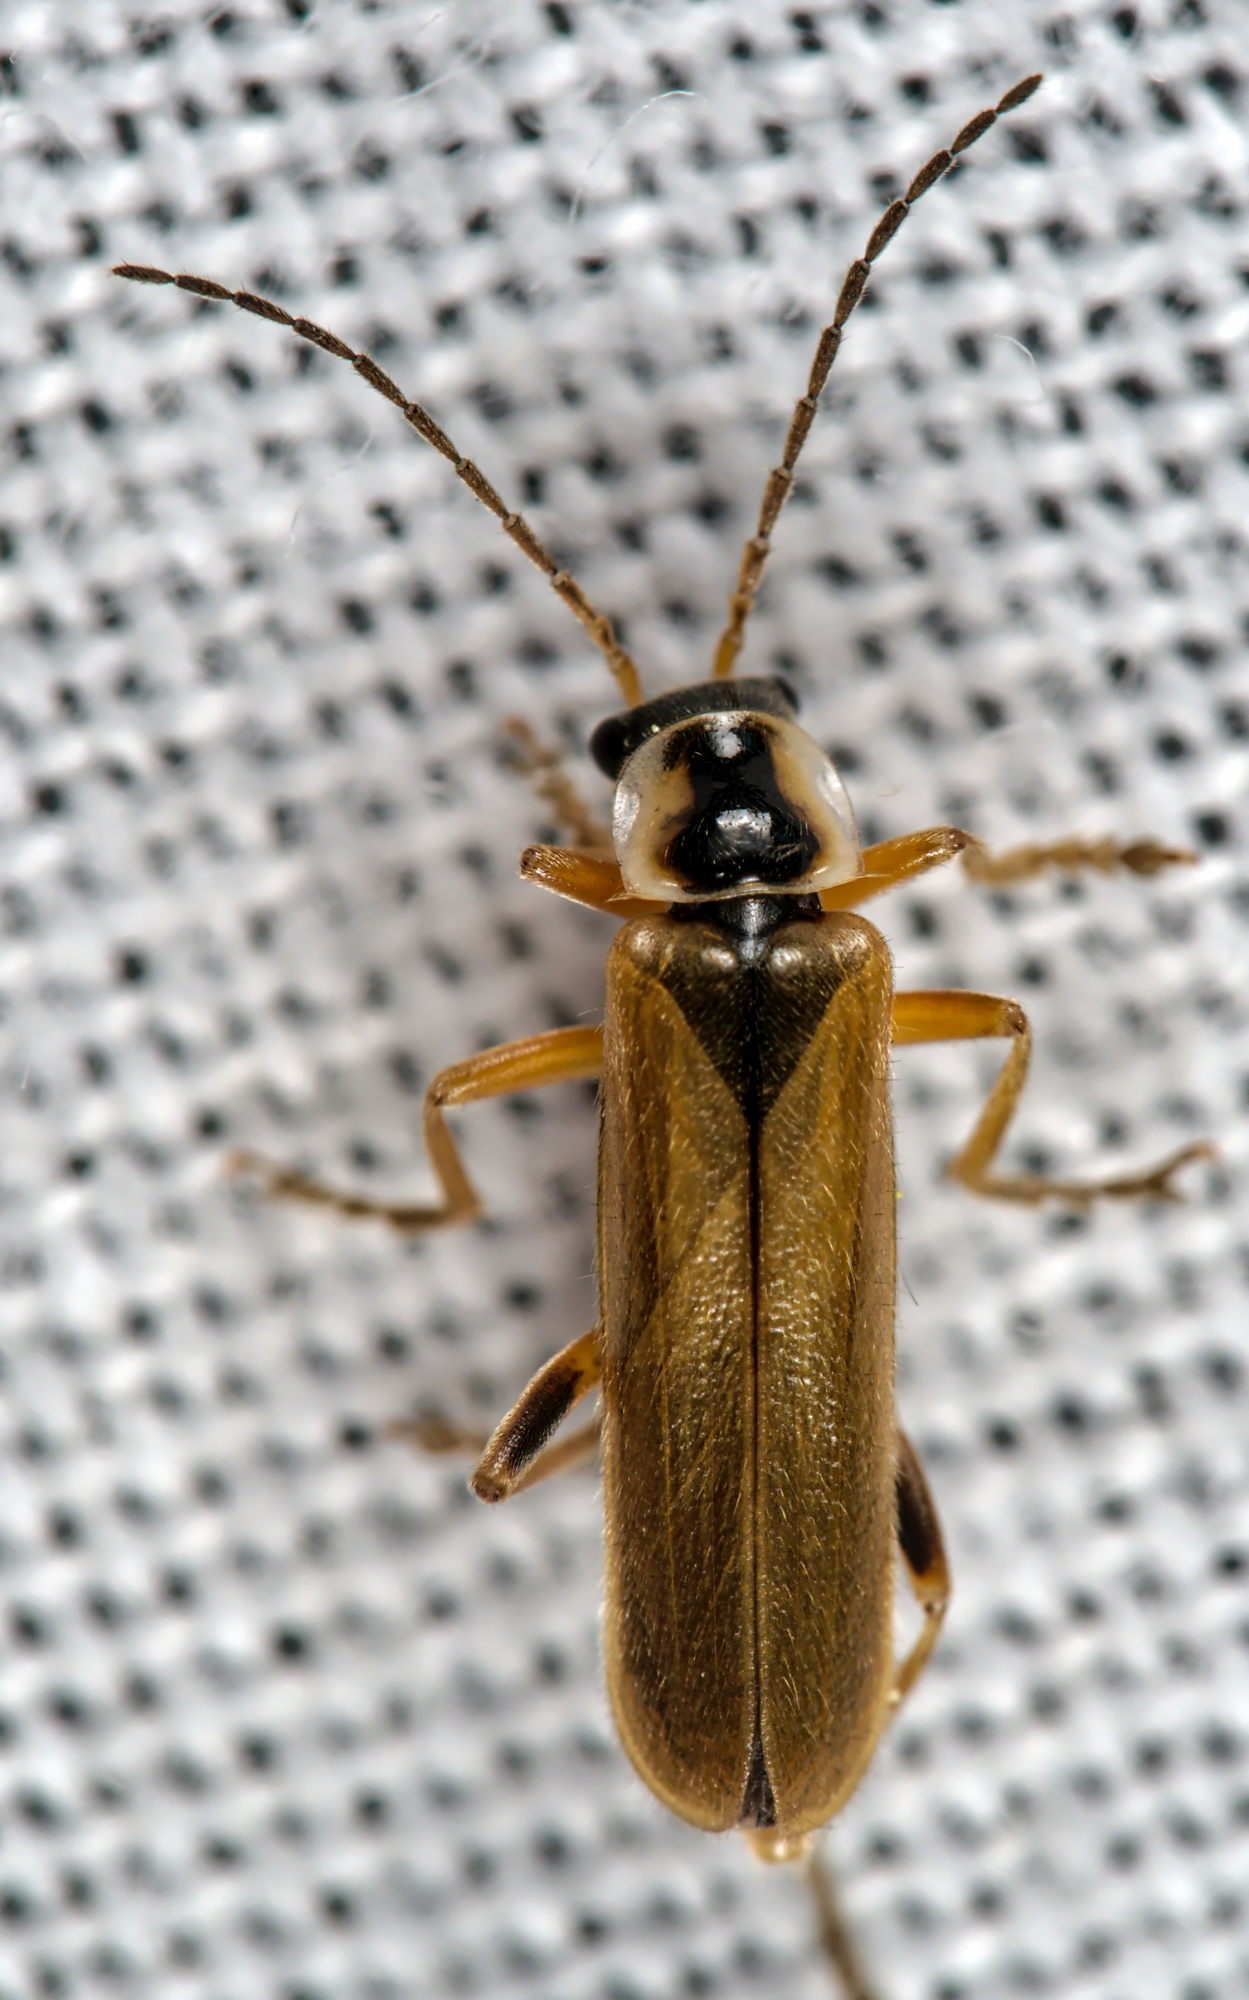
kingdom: Animalia
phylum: Arthropoda
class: Insecta
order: Coleoptera
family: Cantharidae
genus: Cantharis
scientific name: Cantharis decipiens
